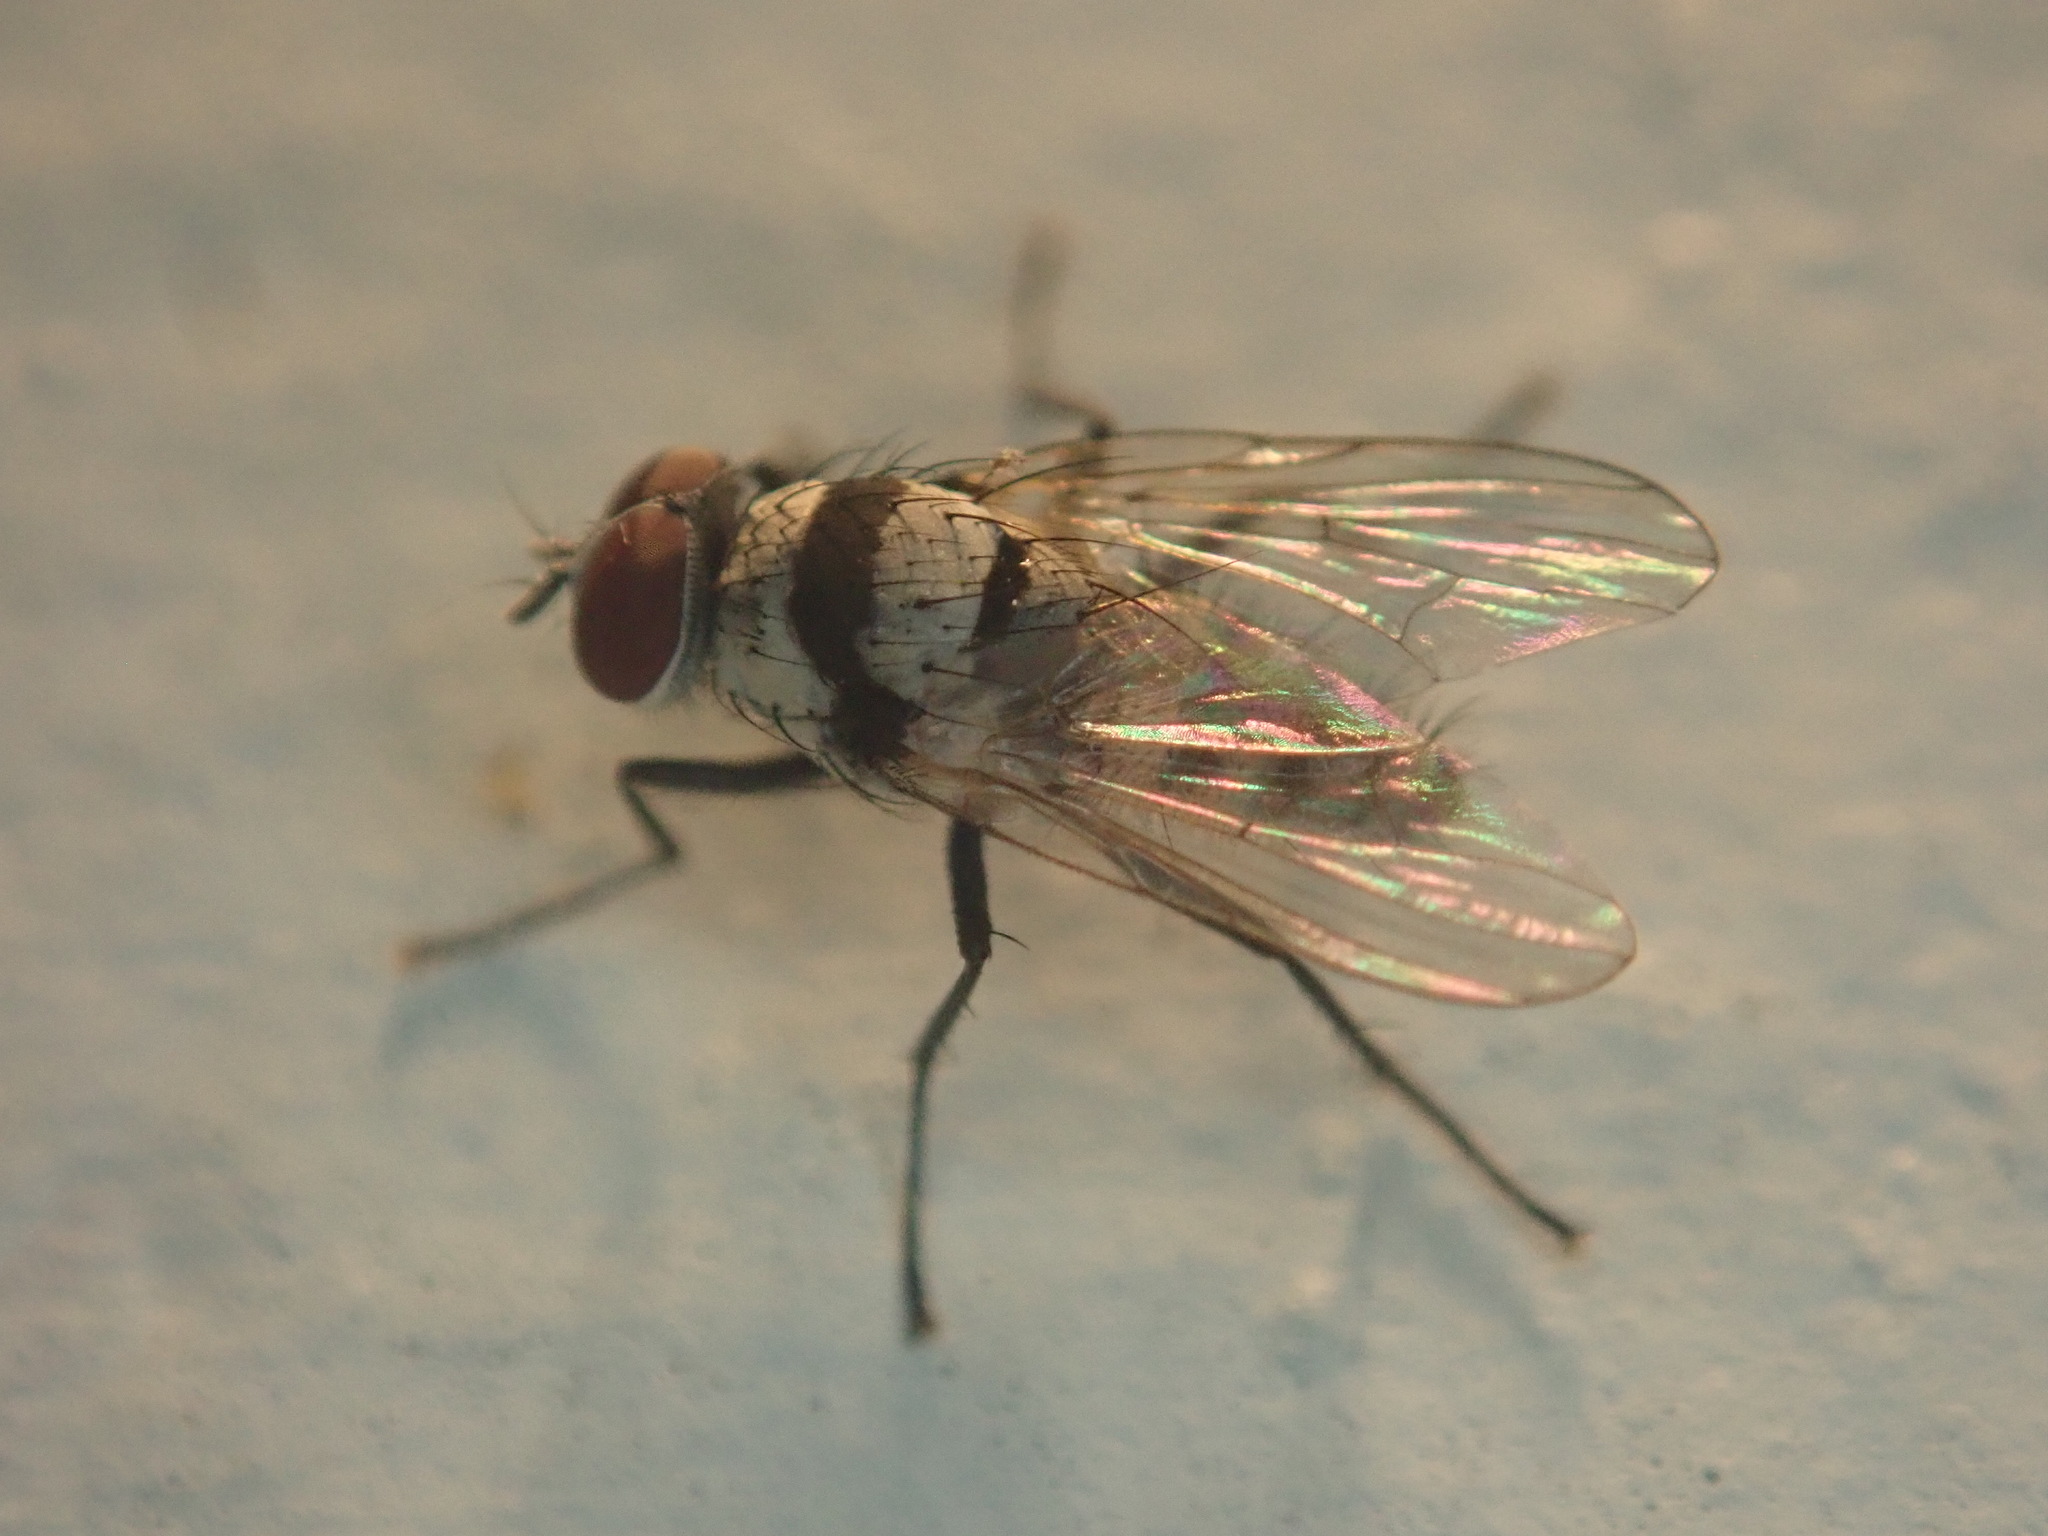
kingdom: Animalia
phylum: Arthropoda
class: Insecta
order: Diptera
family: Anthomyiidae
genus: Anthomyia
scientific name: Anthomyia illocata
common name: Fly
